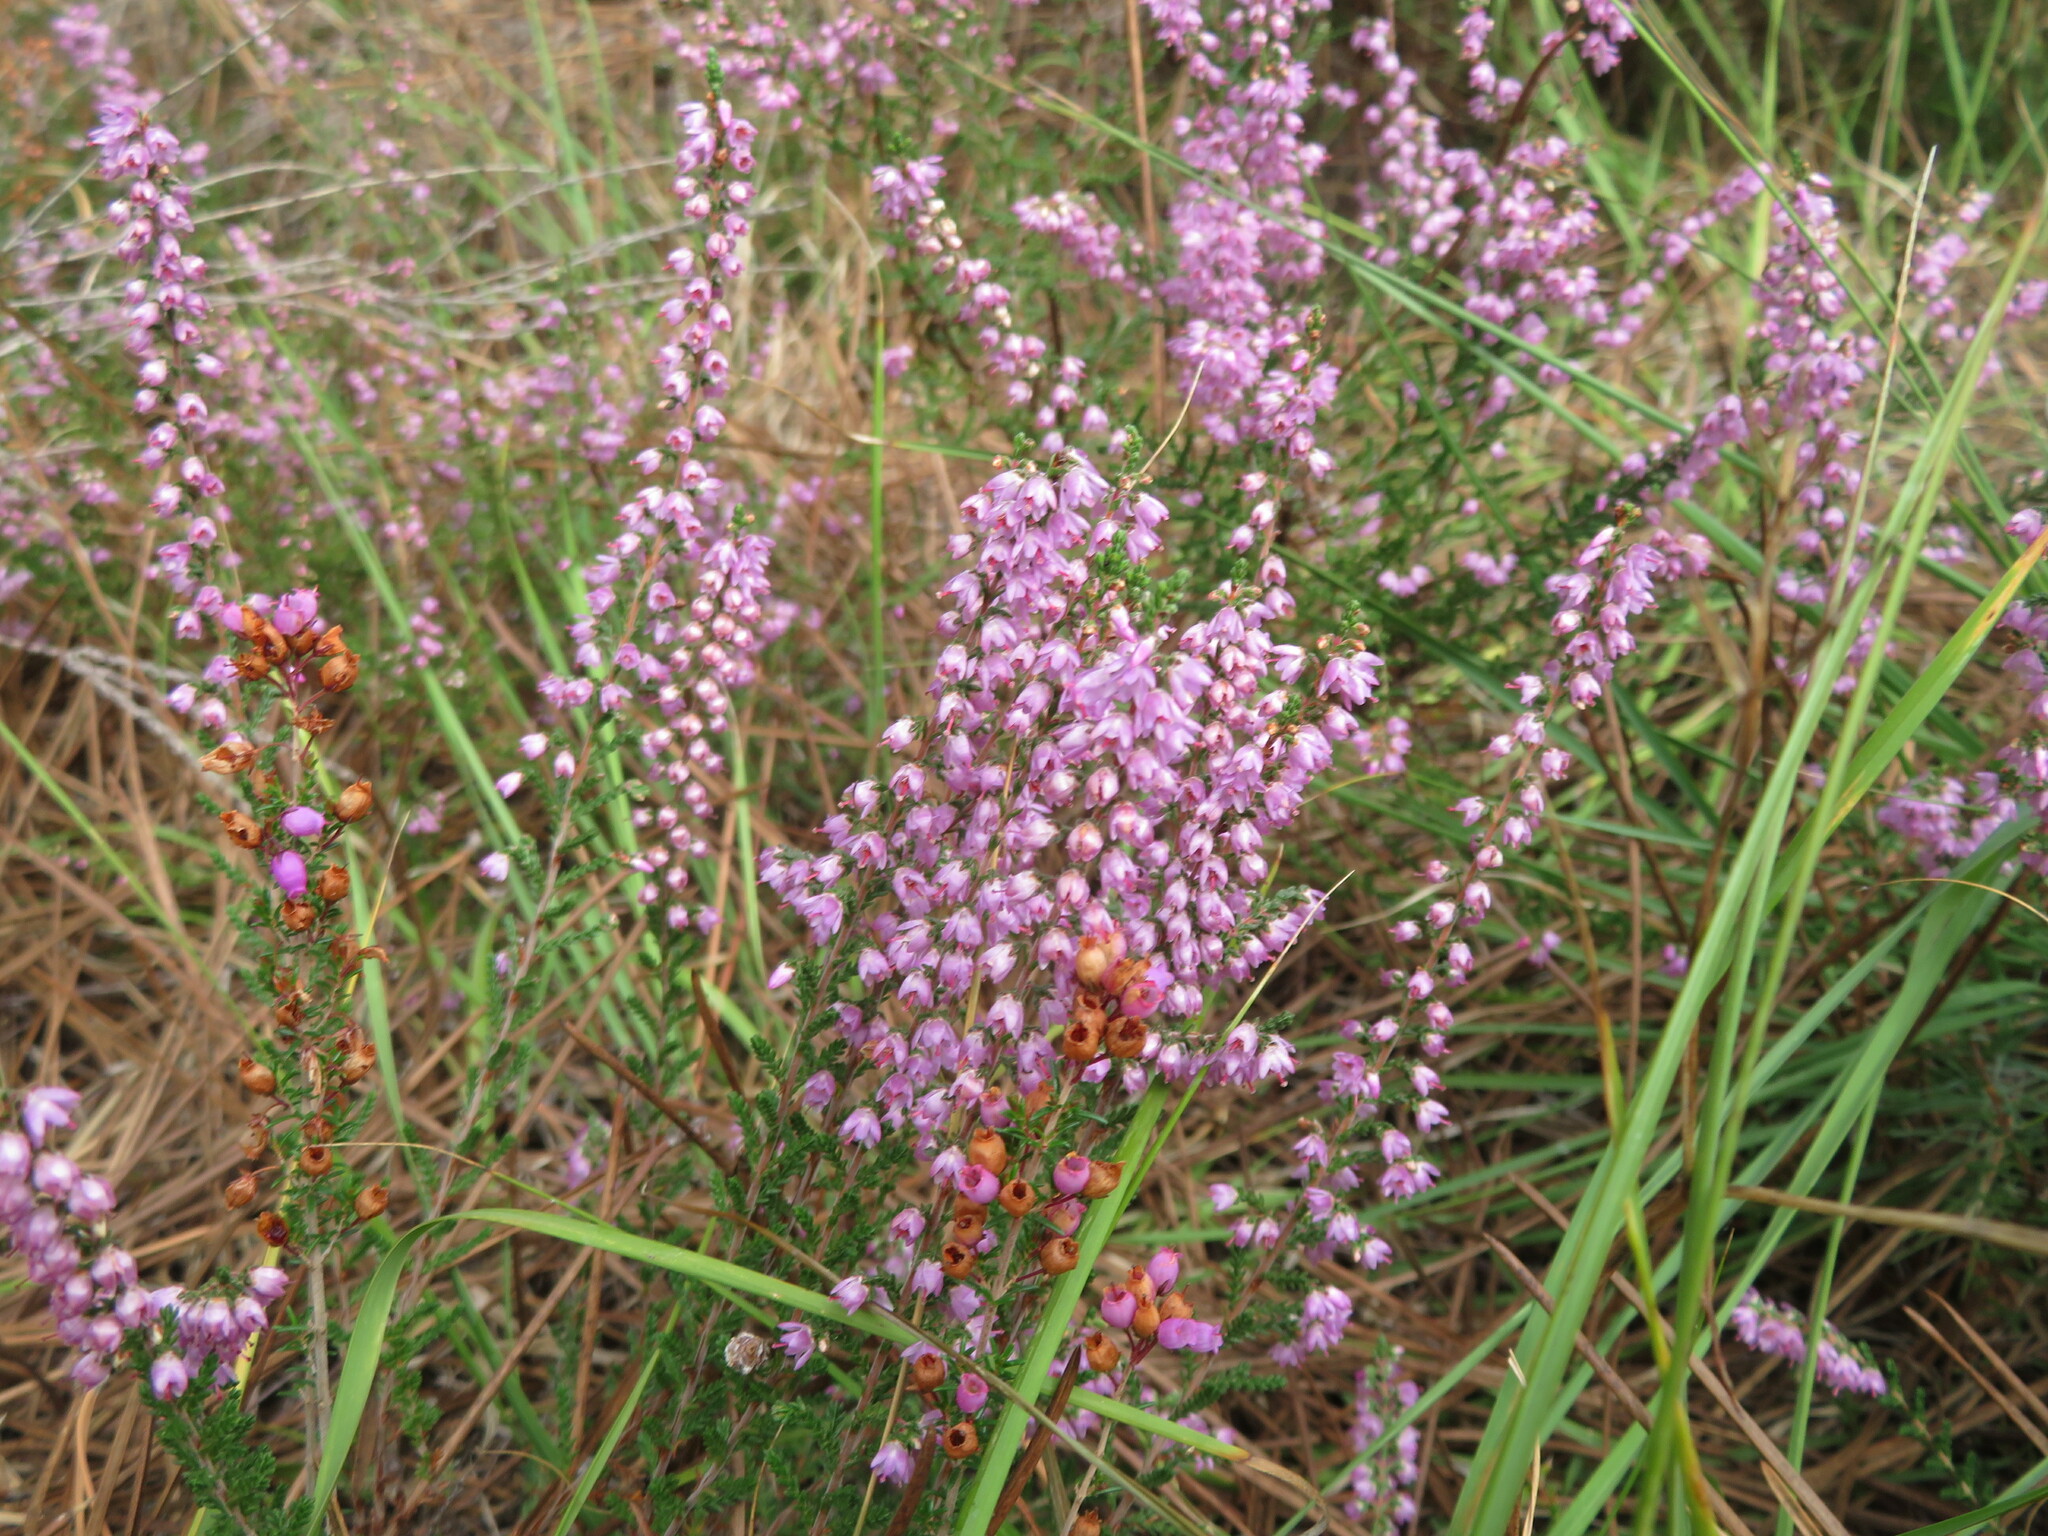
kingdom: Plantae
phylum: Tracheophyta
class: Magnoliopsida
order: Ericales
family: Ericaceae
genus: Calluna
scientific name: Calluna vulgaris
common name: Heather
